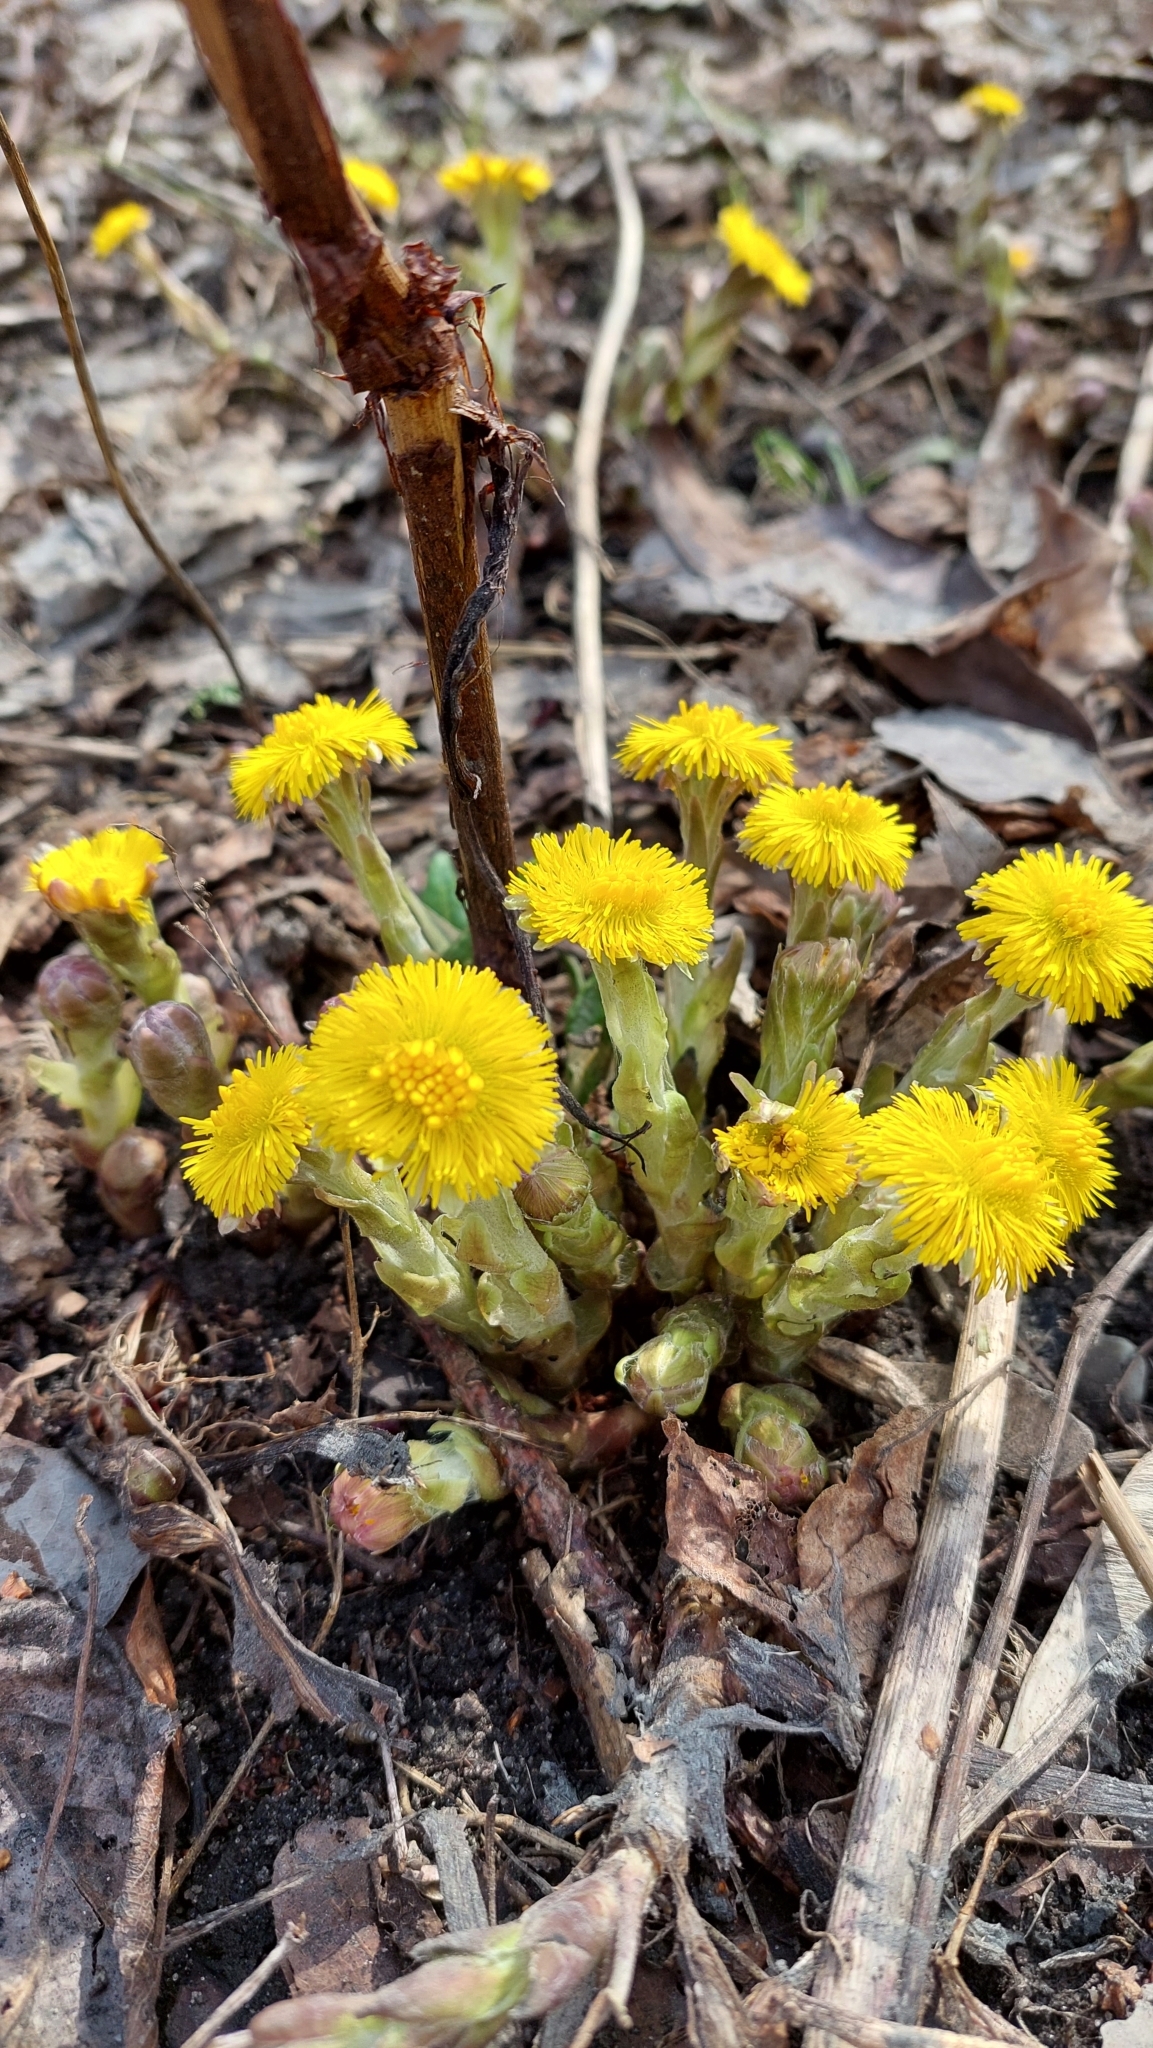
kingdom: Plantae
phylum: Tracheophyta
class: Magnoliopsida
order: Asterales
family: Asteraceae
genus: Tussilago
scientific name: Tussilago farfara
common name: Coltsfoot
